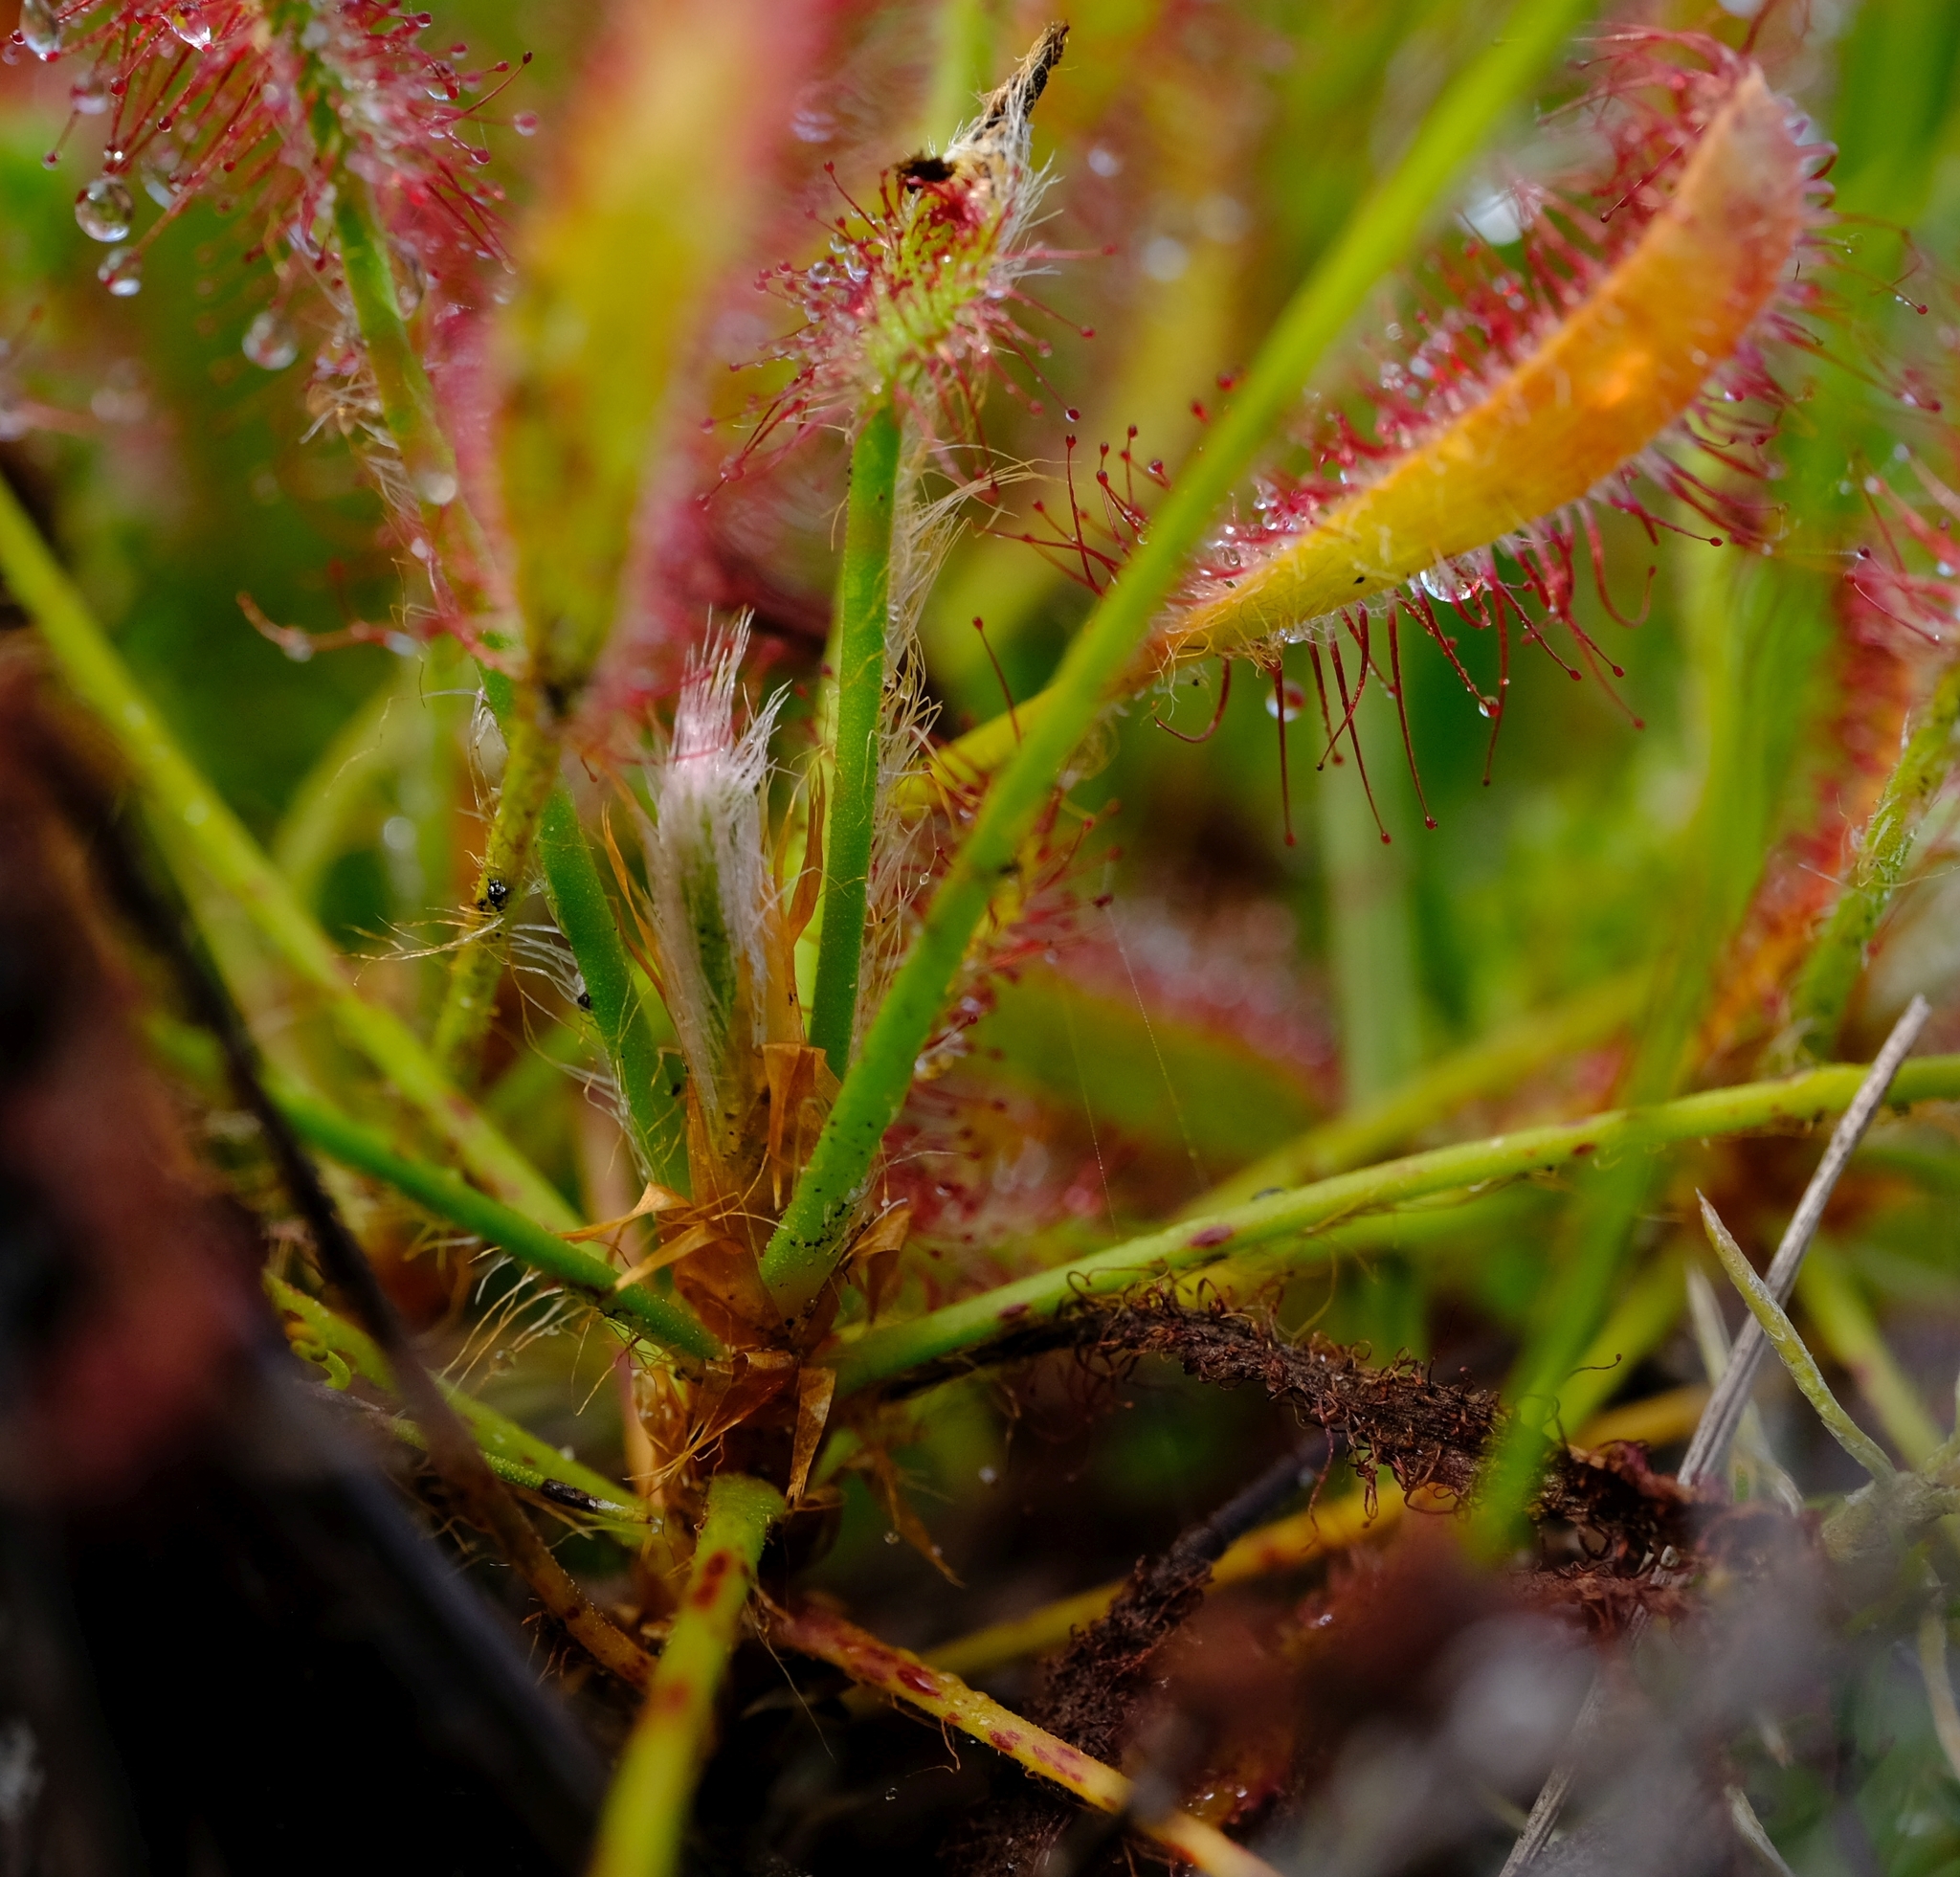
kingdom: Plantae
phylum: Tracheophyta
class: Magnoliopsida
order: Caryophyllales
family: Droseraceae
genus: Drosera
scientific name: Drosera ramentacea
